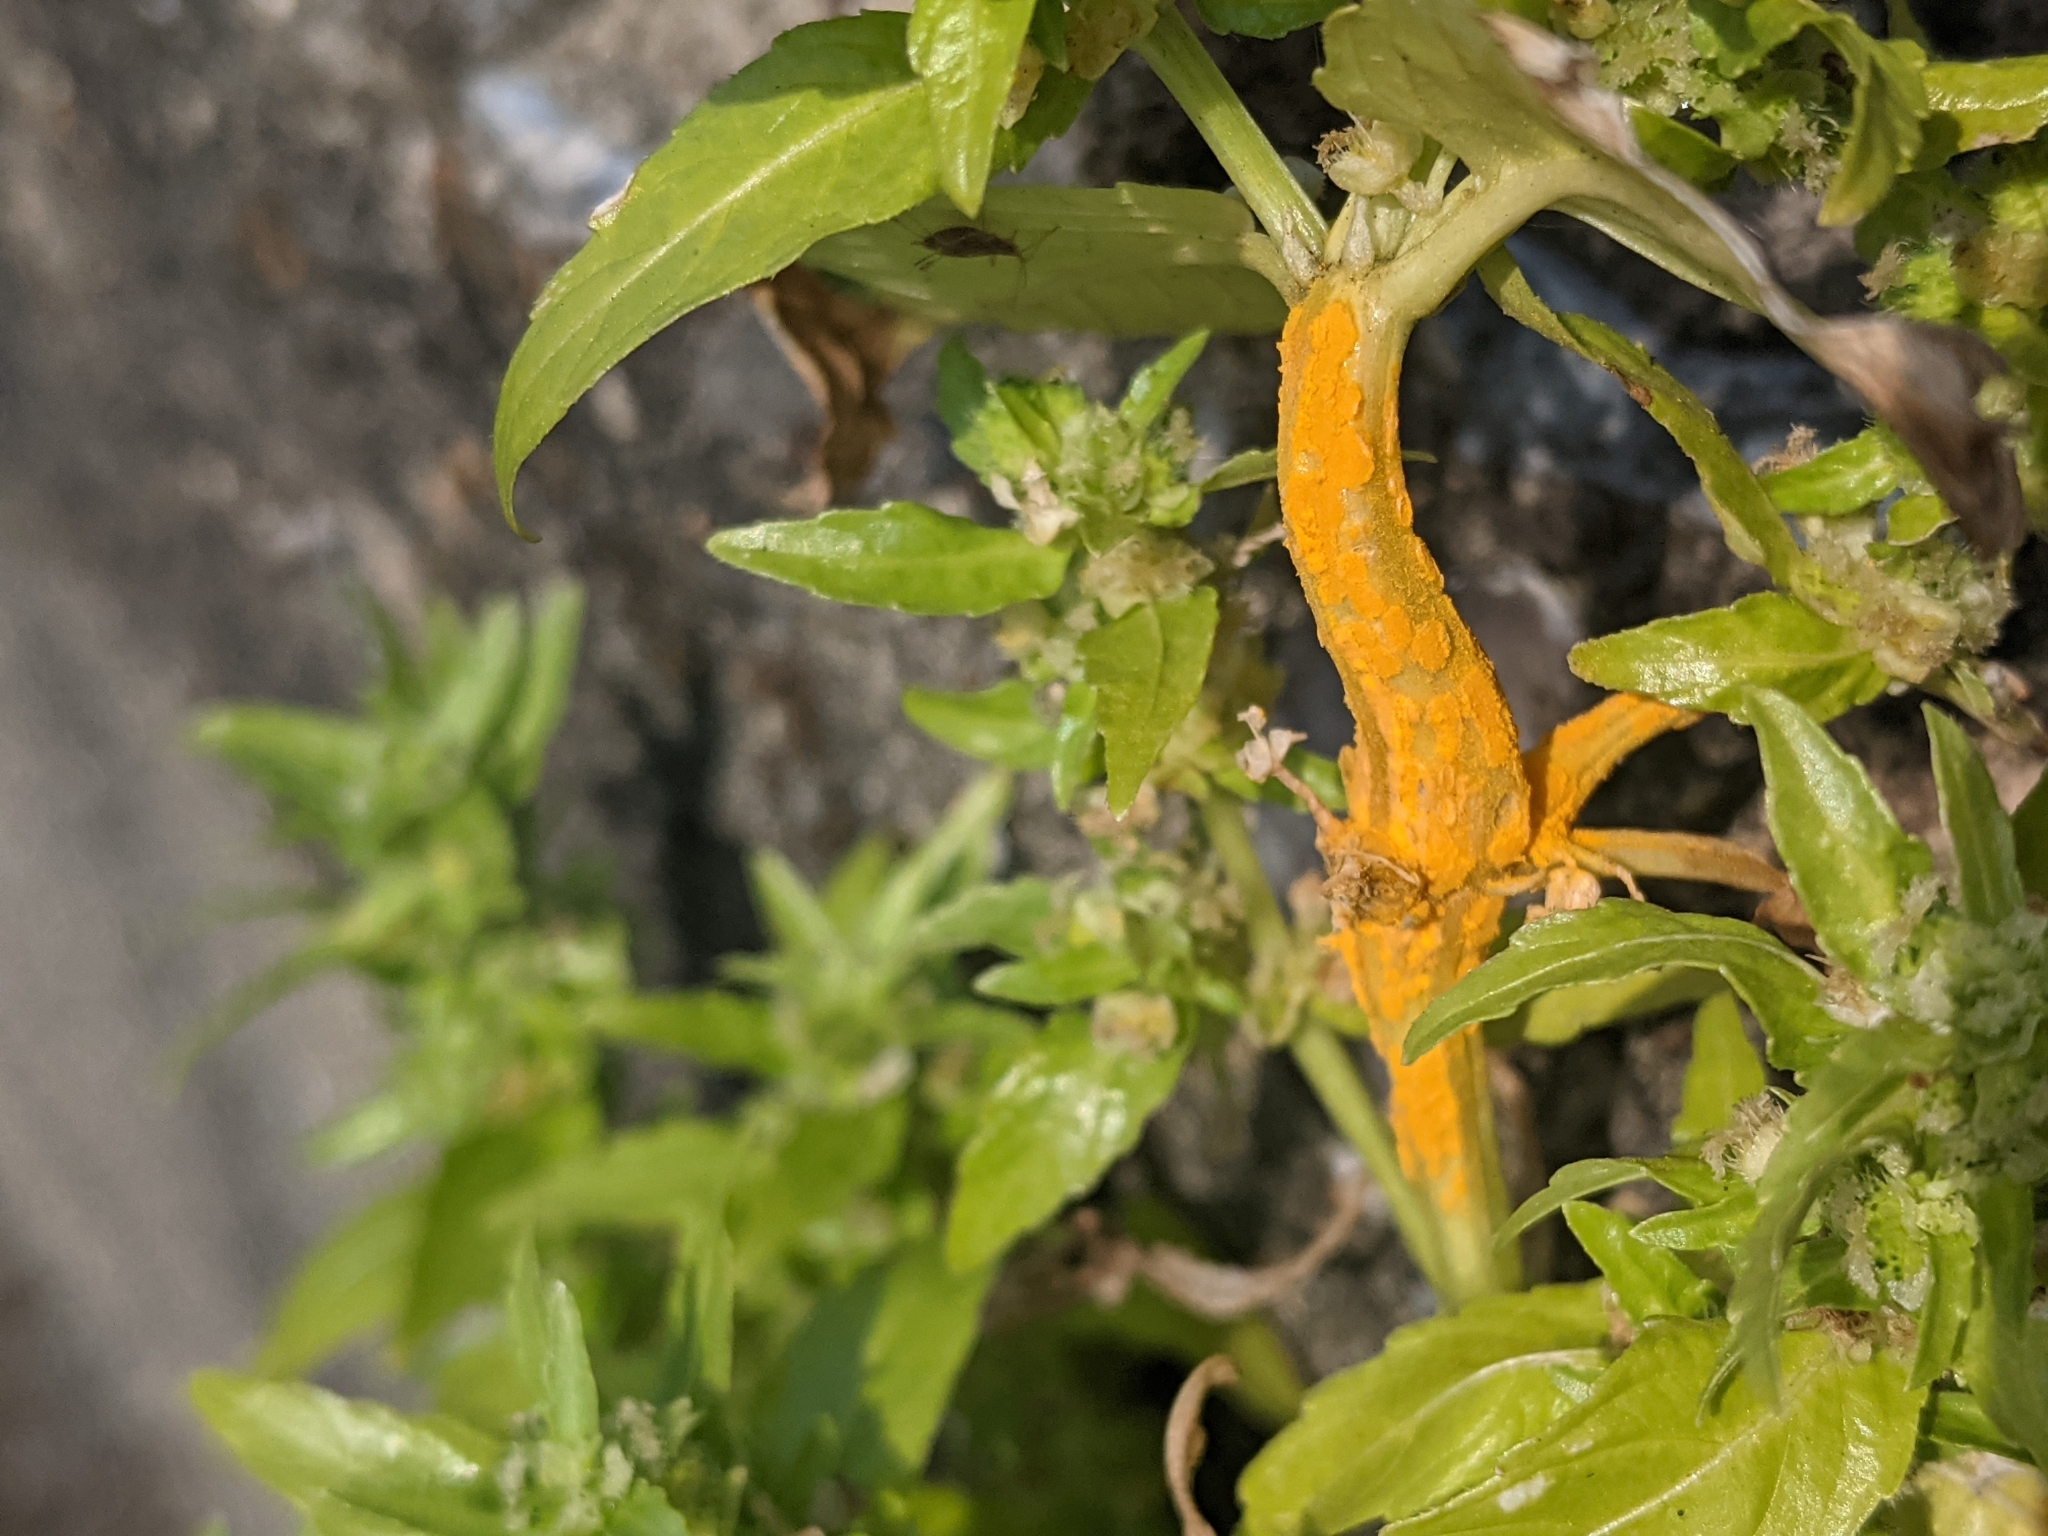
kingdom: Fungi
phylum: Basidiomycota
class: Pucciniomycetes
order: Pucciniales
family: Melampsoraceae
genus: Melampsora
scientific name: Melampsora pulcherrima
